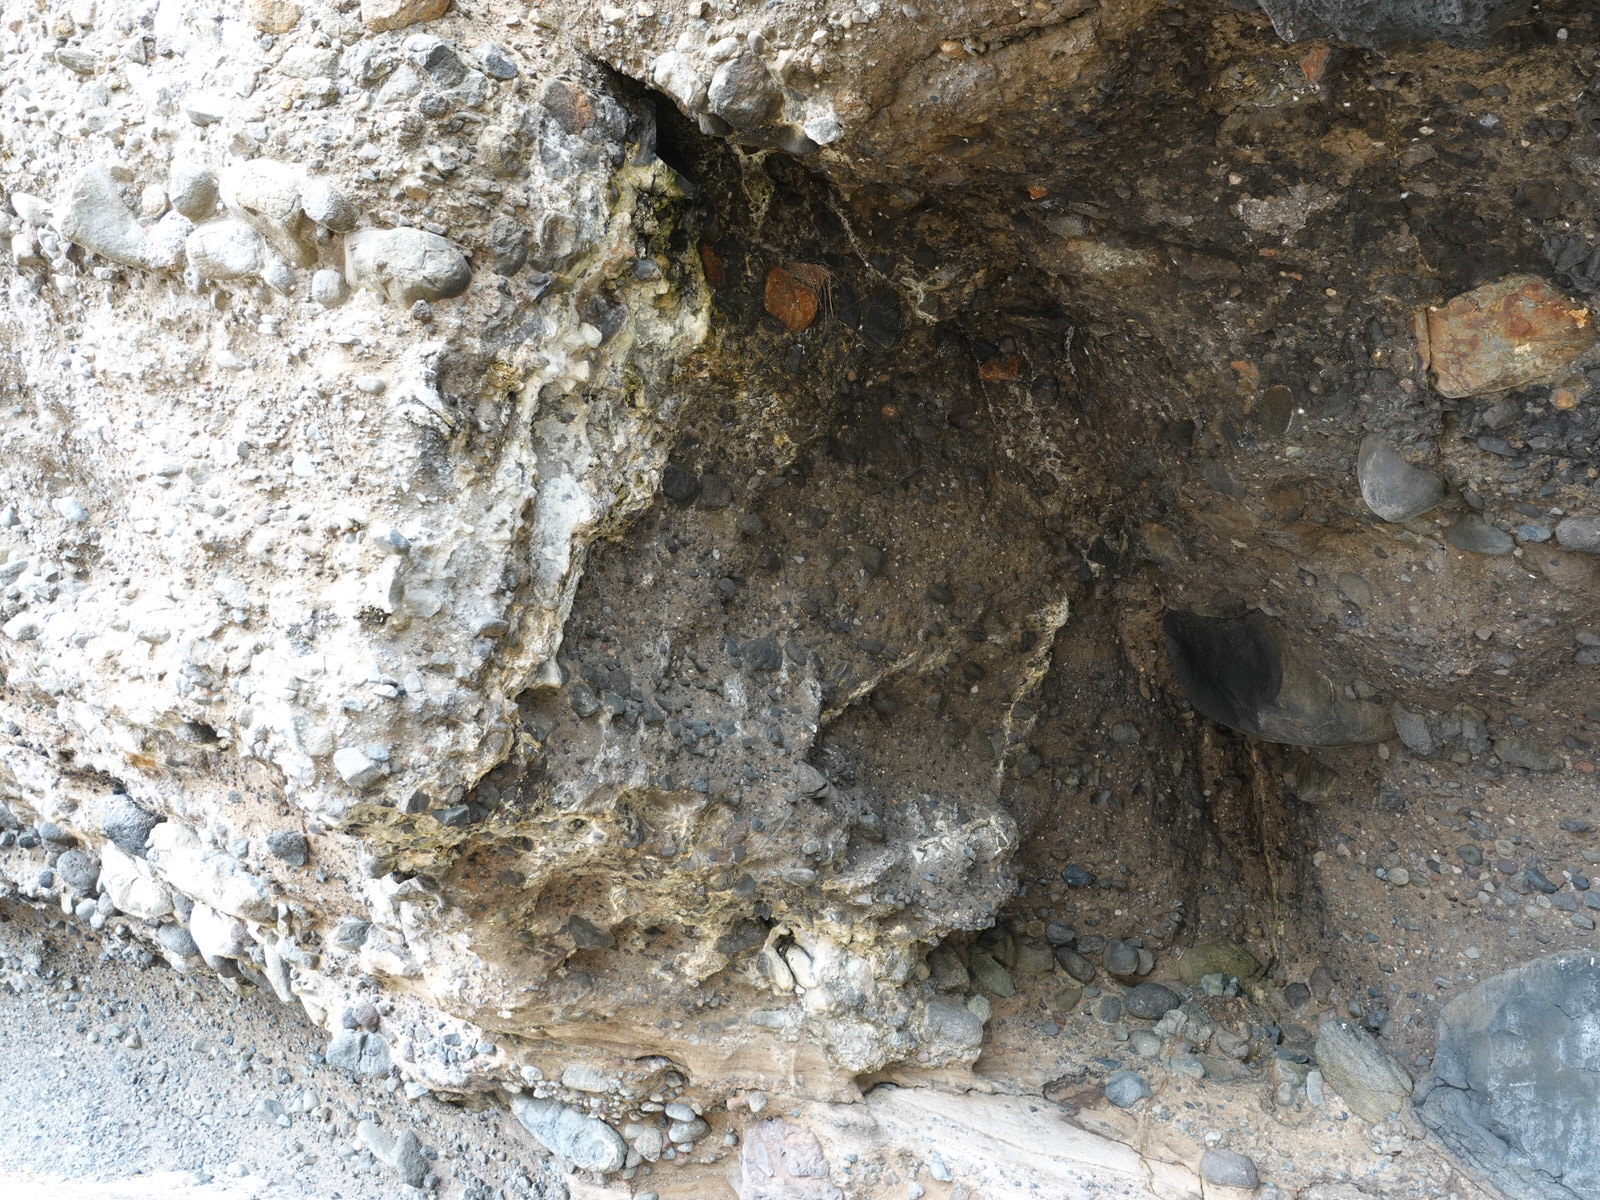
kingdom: Animalia
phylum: Chordata
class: Aves
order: Passeriformes
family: Hirundinidae
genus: Hirundo
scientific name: Hirundo neoxena
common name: Welcome swallow
